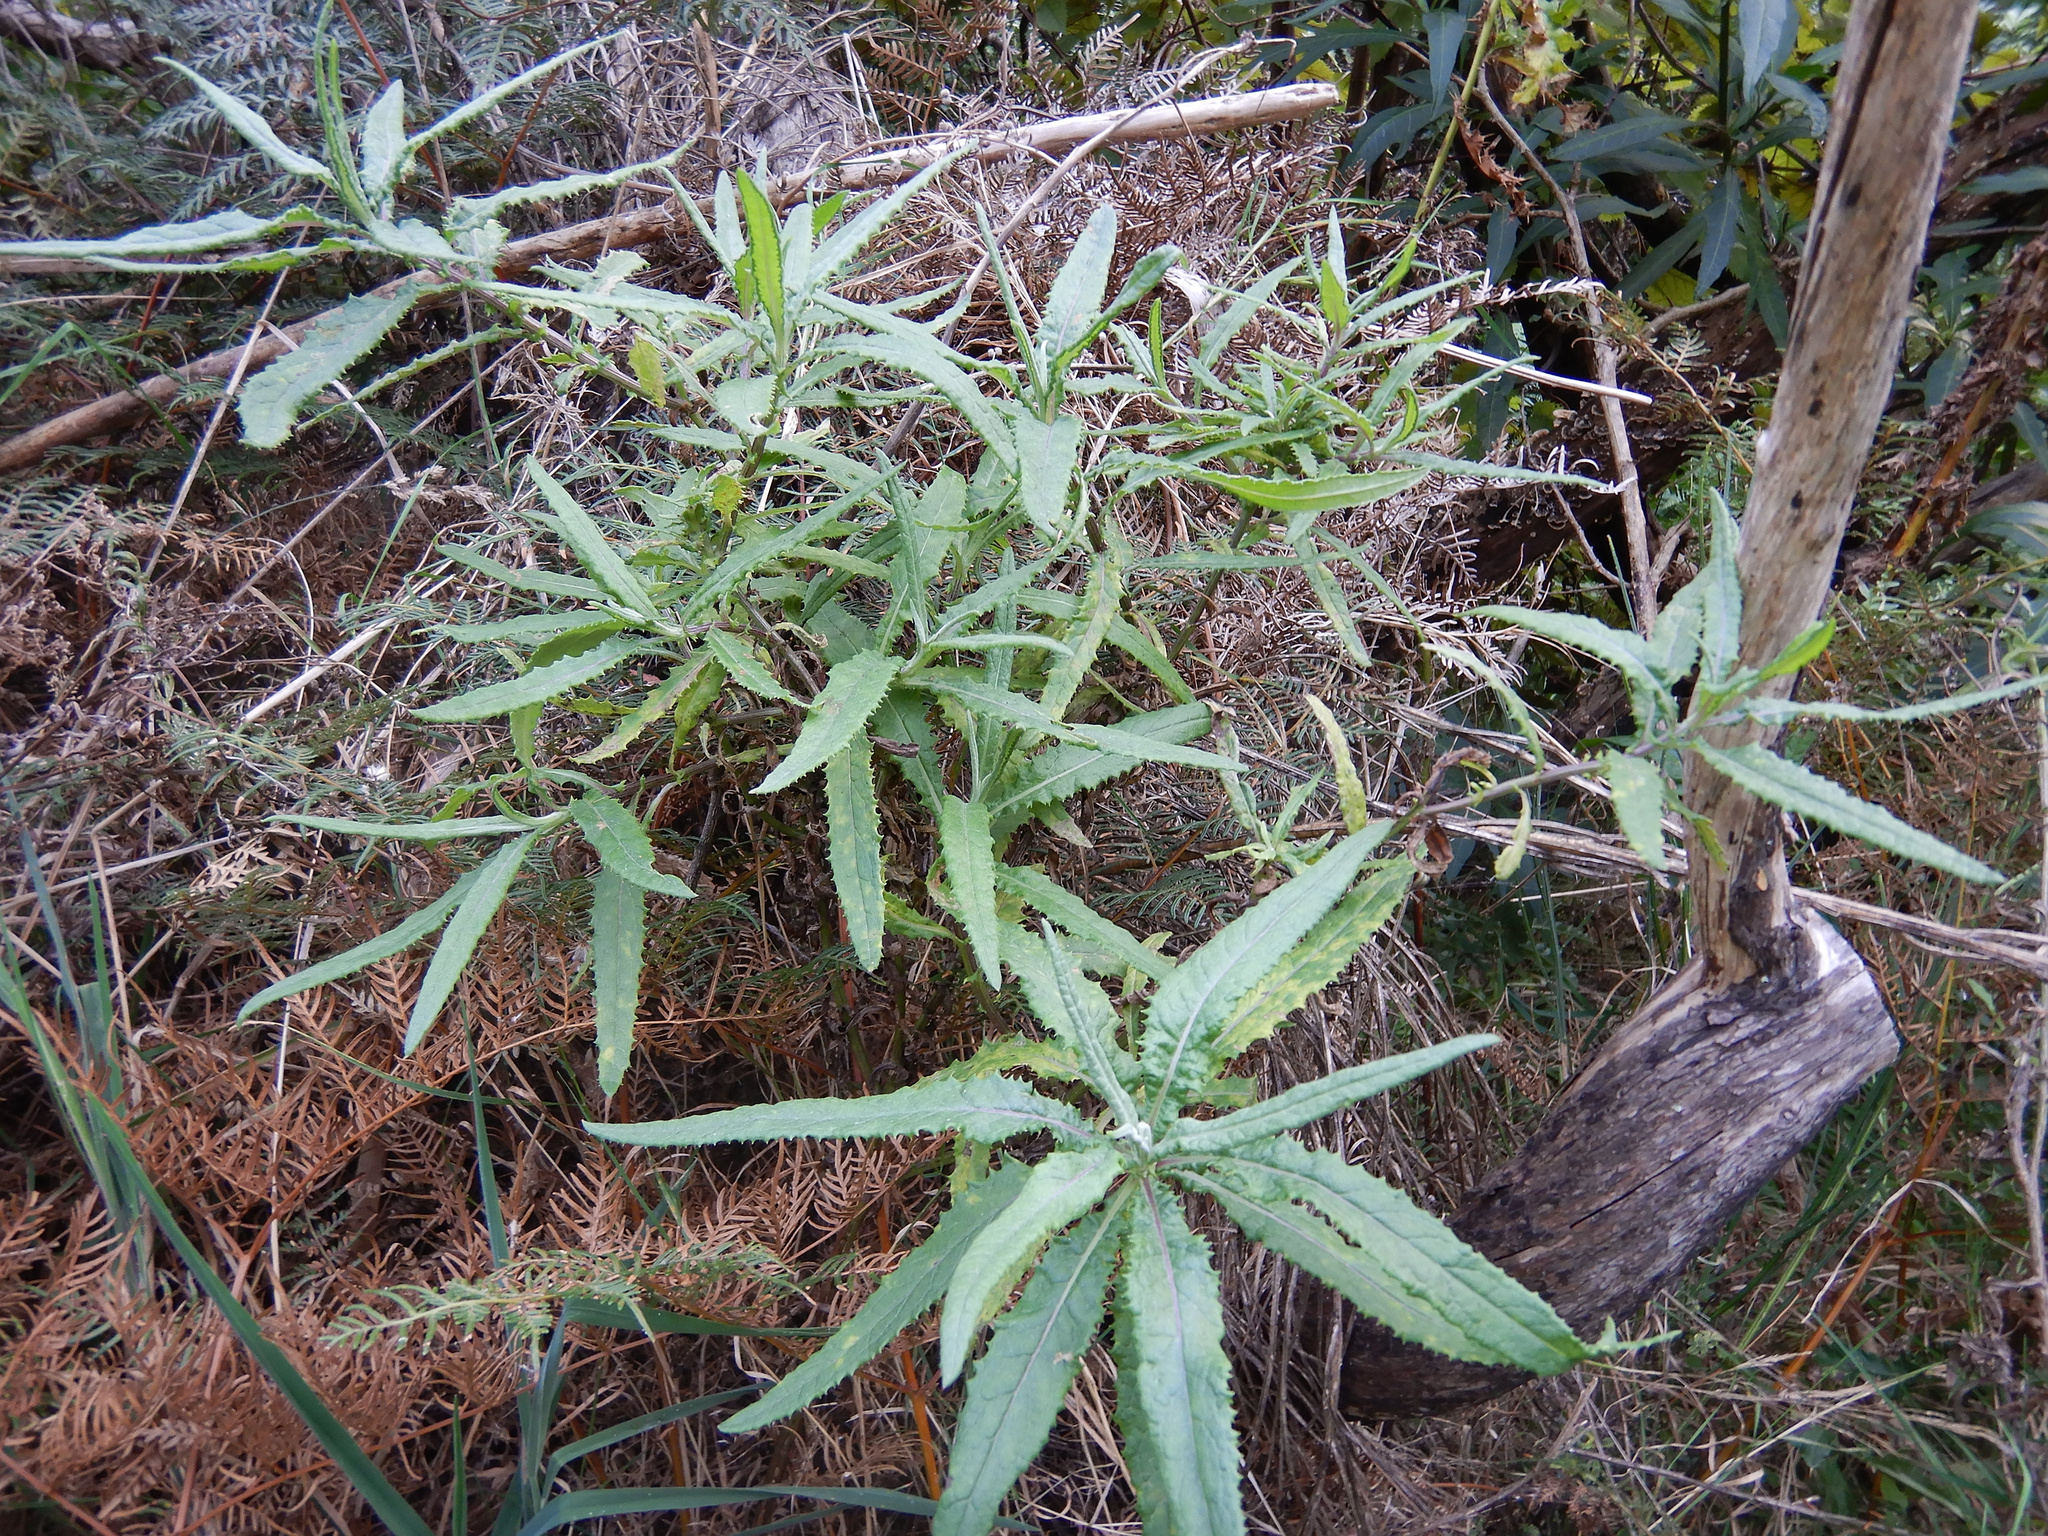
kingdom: Plantae
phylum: Tracheophyta
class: Magnoliopsida
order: Asterales
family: Asteraceae
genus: Senecio
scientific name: Senecio minimus
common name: Toothed fireweed
